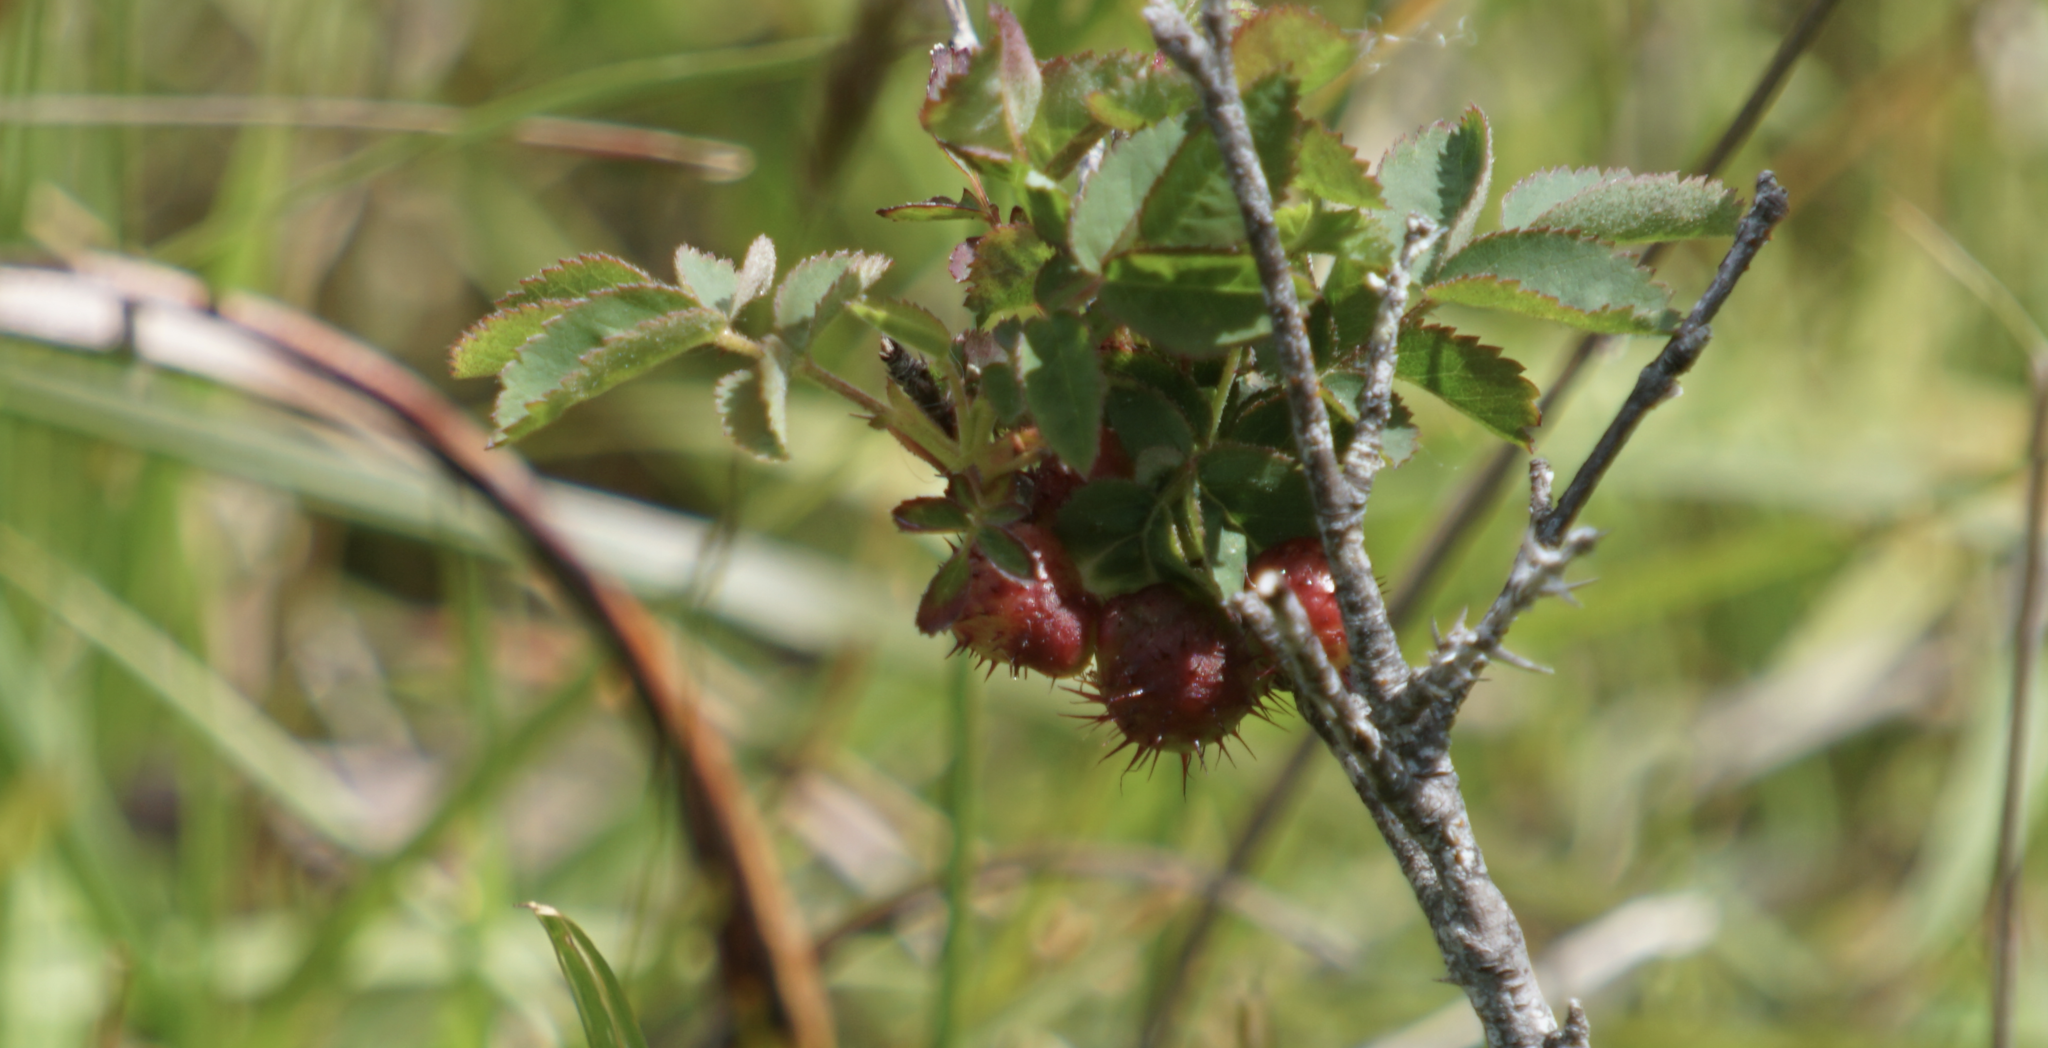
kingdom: Animalia
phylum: Arthropoda
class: Insecta
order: Hymenoptera
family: Cynipidae
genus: Diplolepis
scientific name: Diplolepis polita
